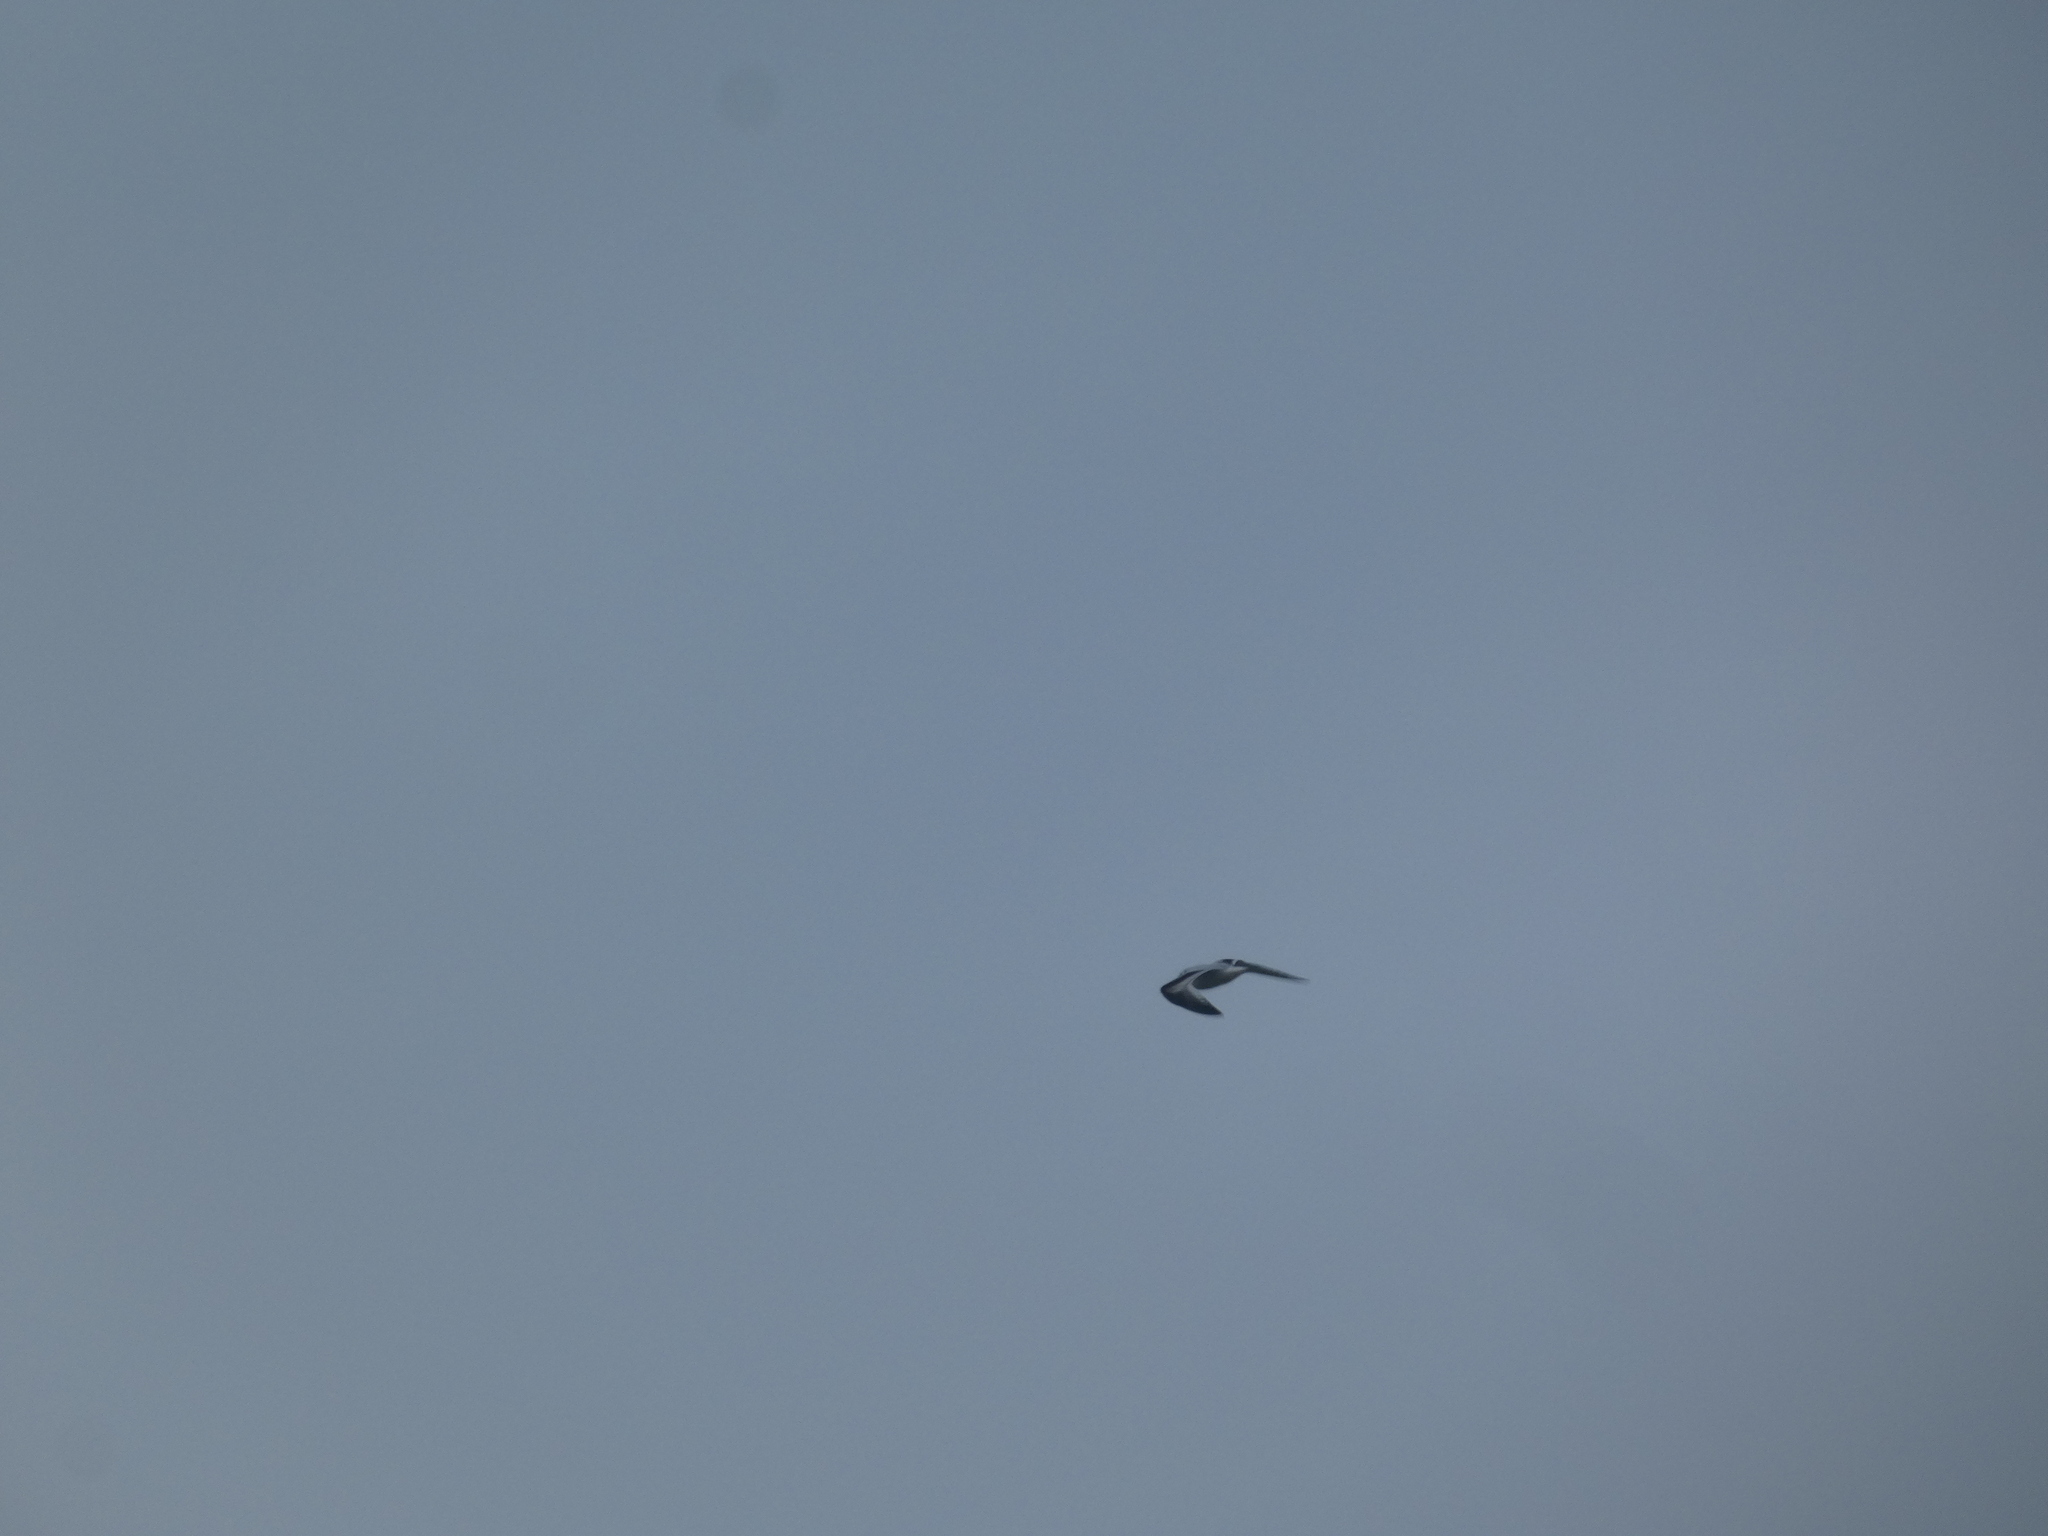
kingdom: Animalia
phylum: Chordata
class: Aves
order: Charadriiformes
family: Laridae
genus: Hydrocoloeus
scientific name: Hydrocoloeus minutus
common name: Little gull
